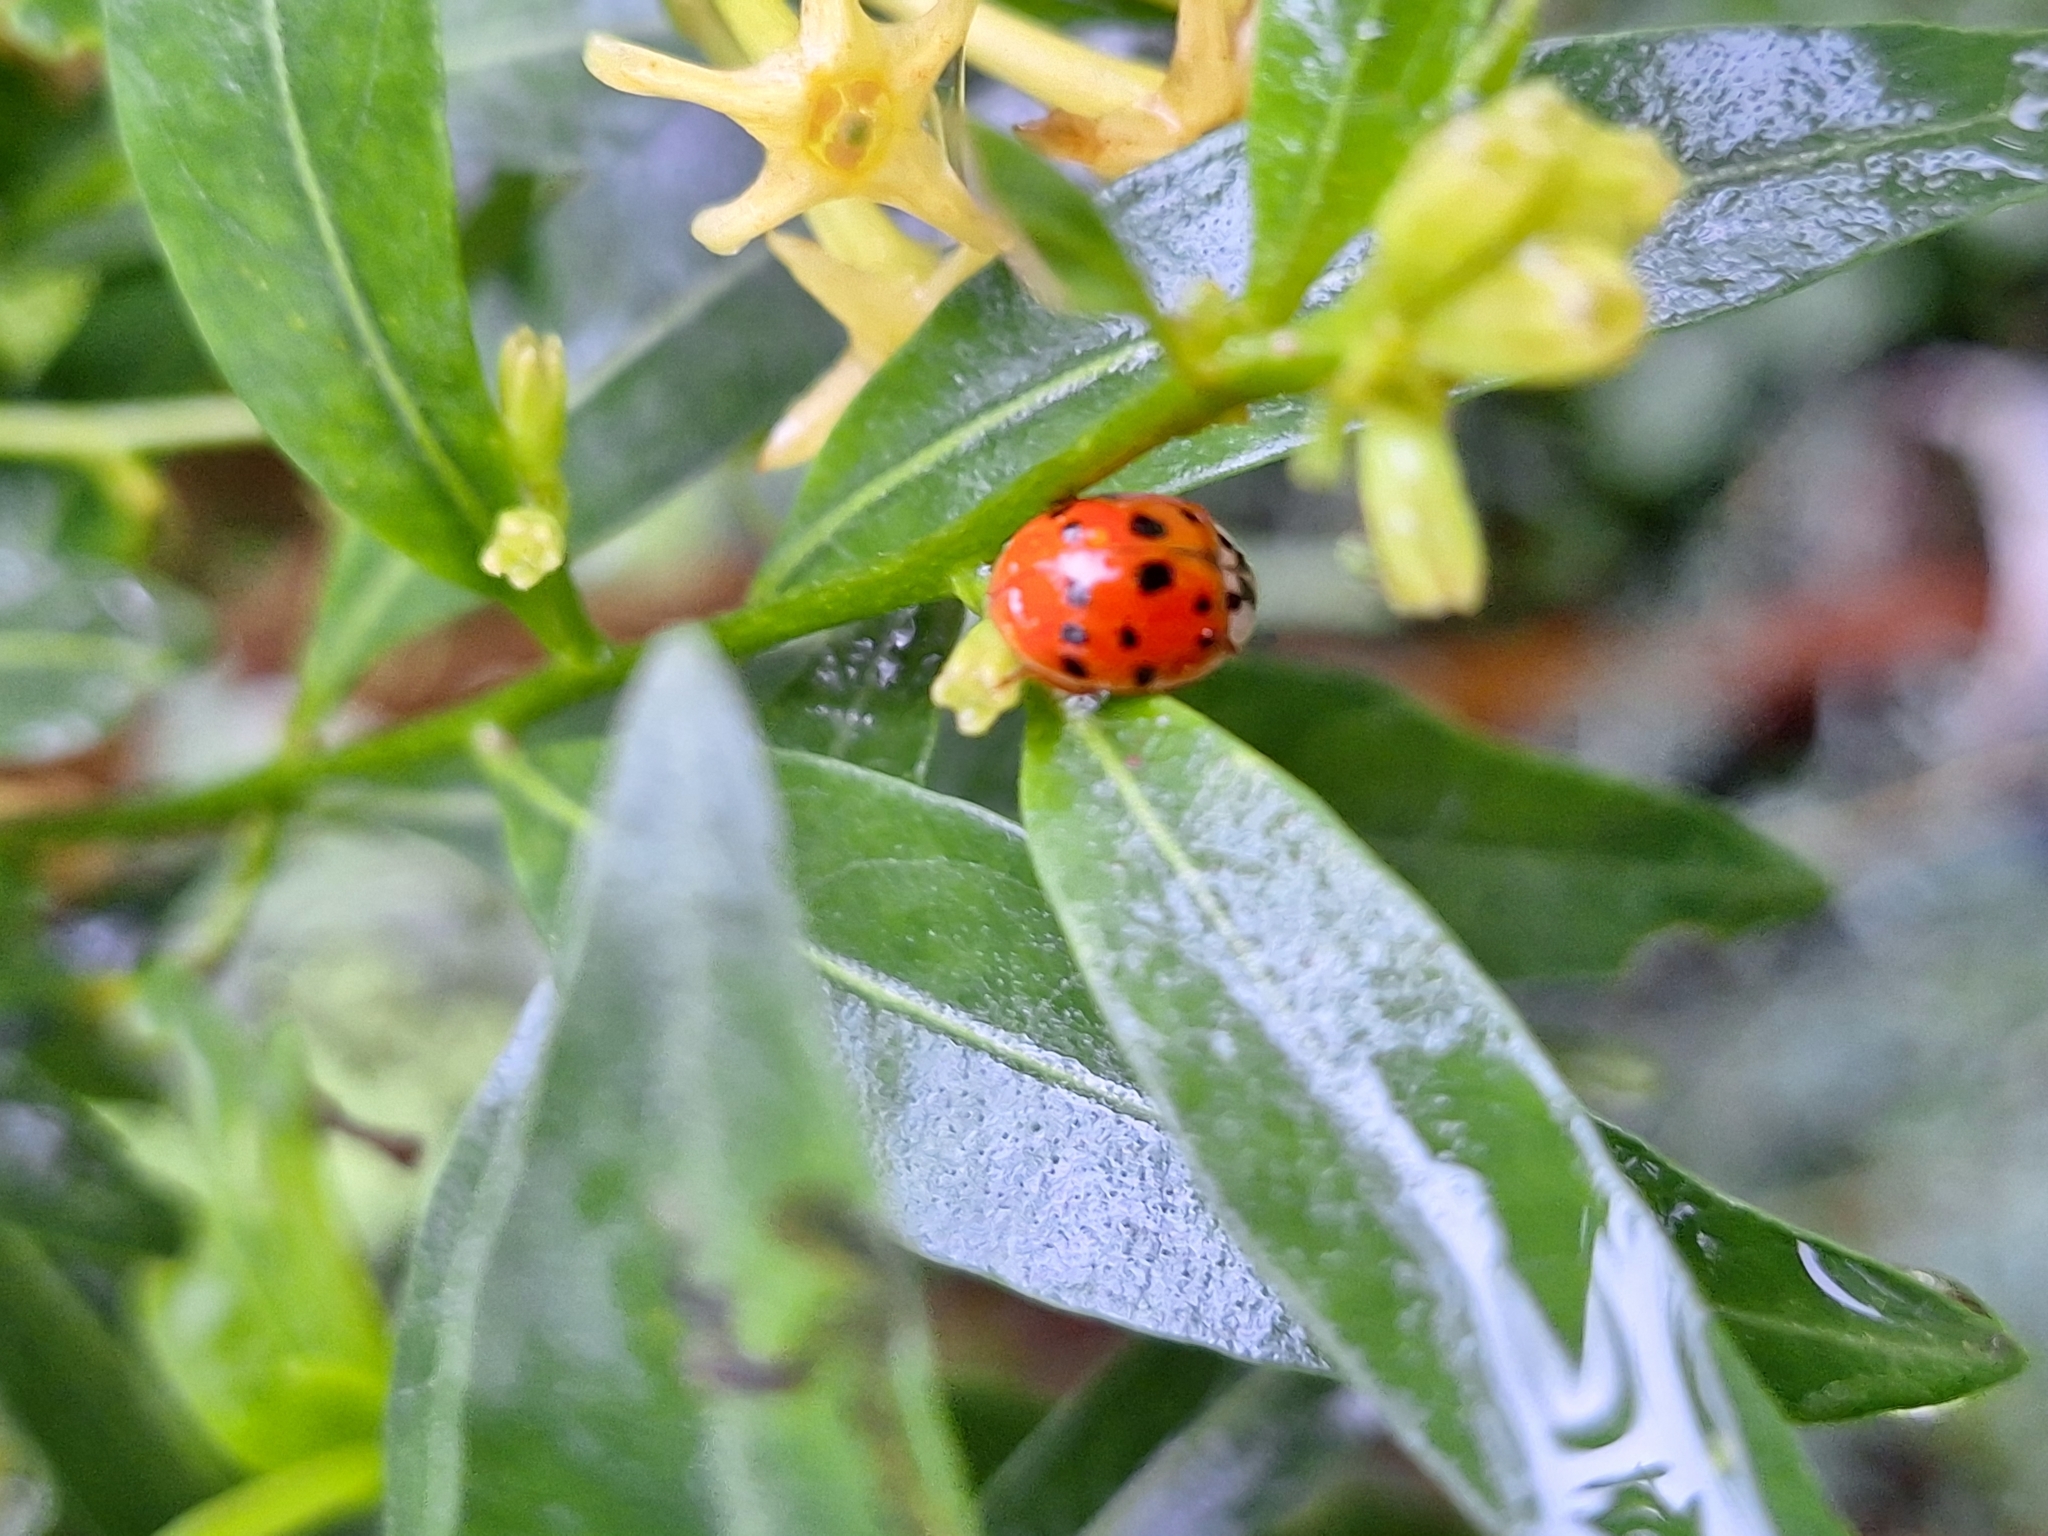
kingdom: Animalia
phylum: Arthropoda
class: Insecta
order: Coleoptera
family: Coccinellidae
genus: Harmonia
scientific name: Harmonia axyridis
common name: Harlequin ladybird
